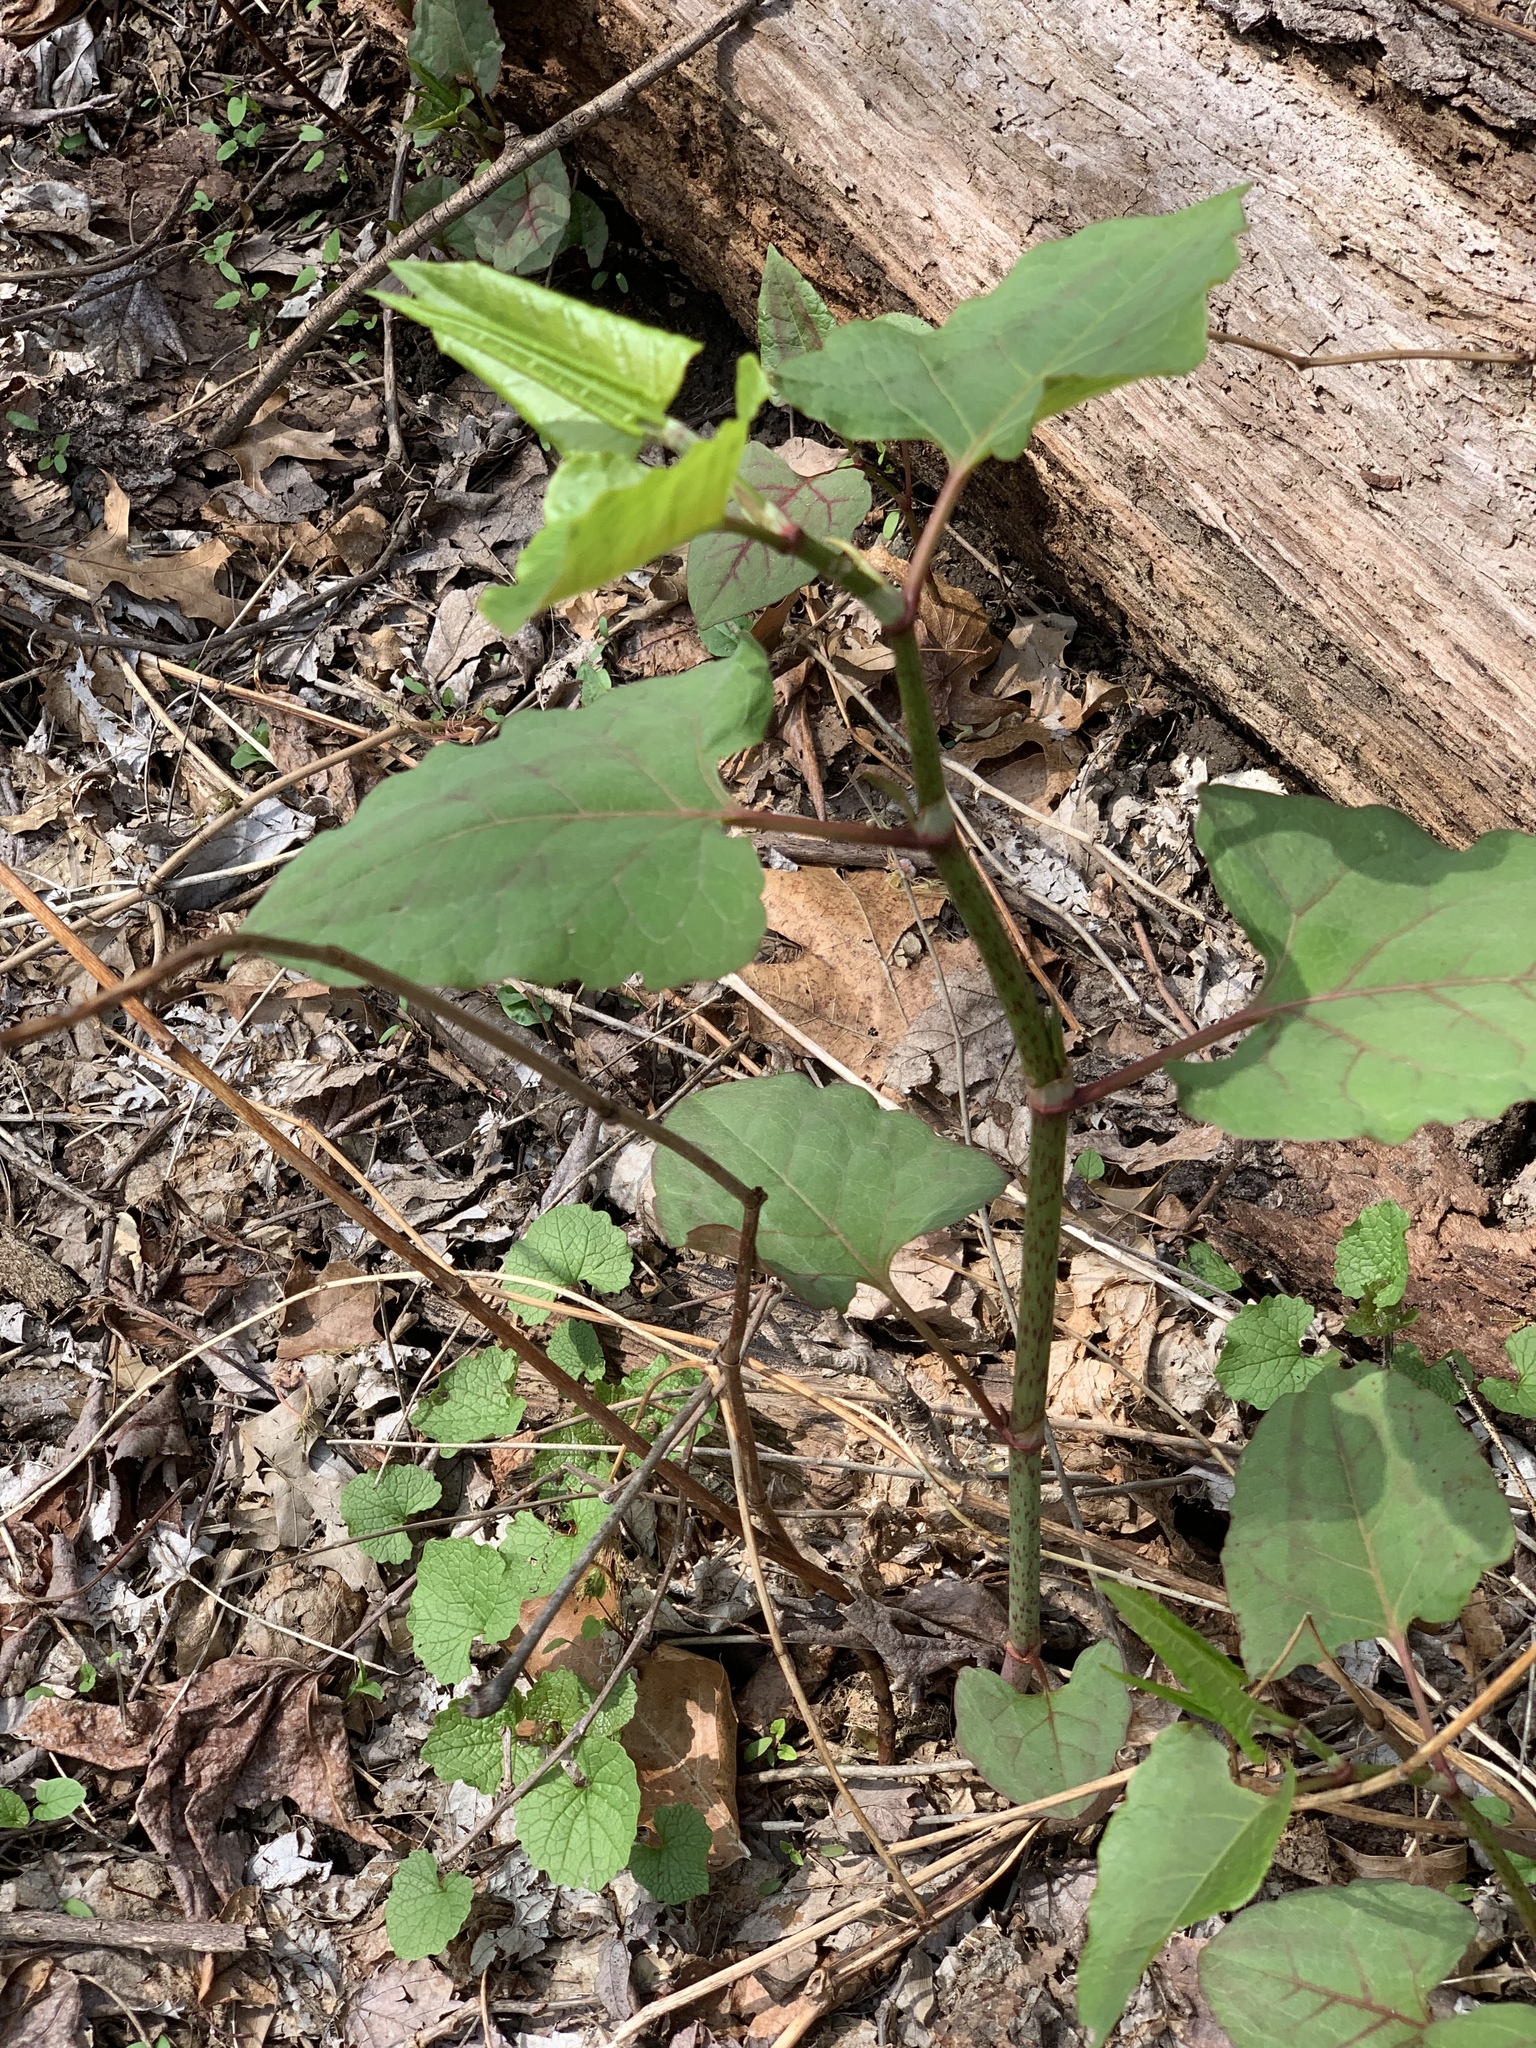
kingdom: Plantae
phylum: Tracheophyta
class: Magnoliopsida
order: Caryophyllales
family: Polygonaceae
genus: Reynoutria
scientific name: Reynoutria japonica
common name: Japanese knotweed
